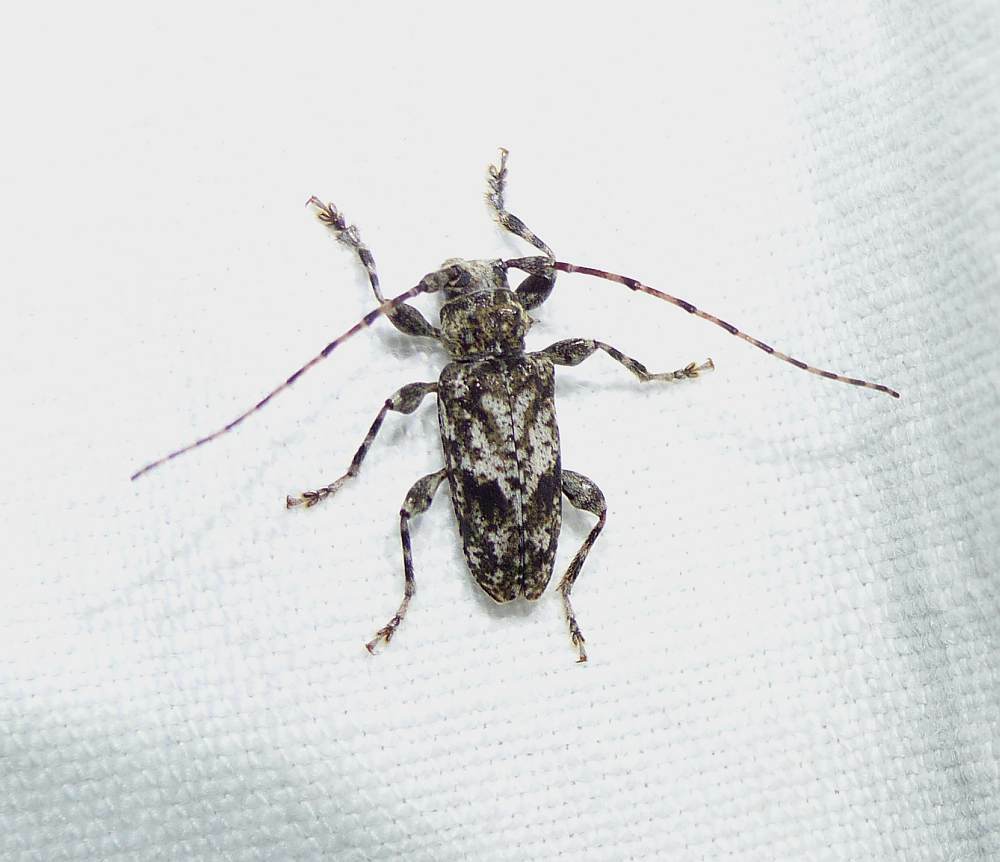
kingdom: Animalia
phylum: Arthropoda
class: Insecta
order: Coleoptera
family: Cerambycidae
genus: Aegomorphus
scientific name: Aegomorphus modestus
